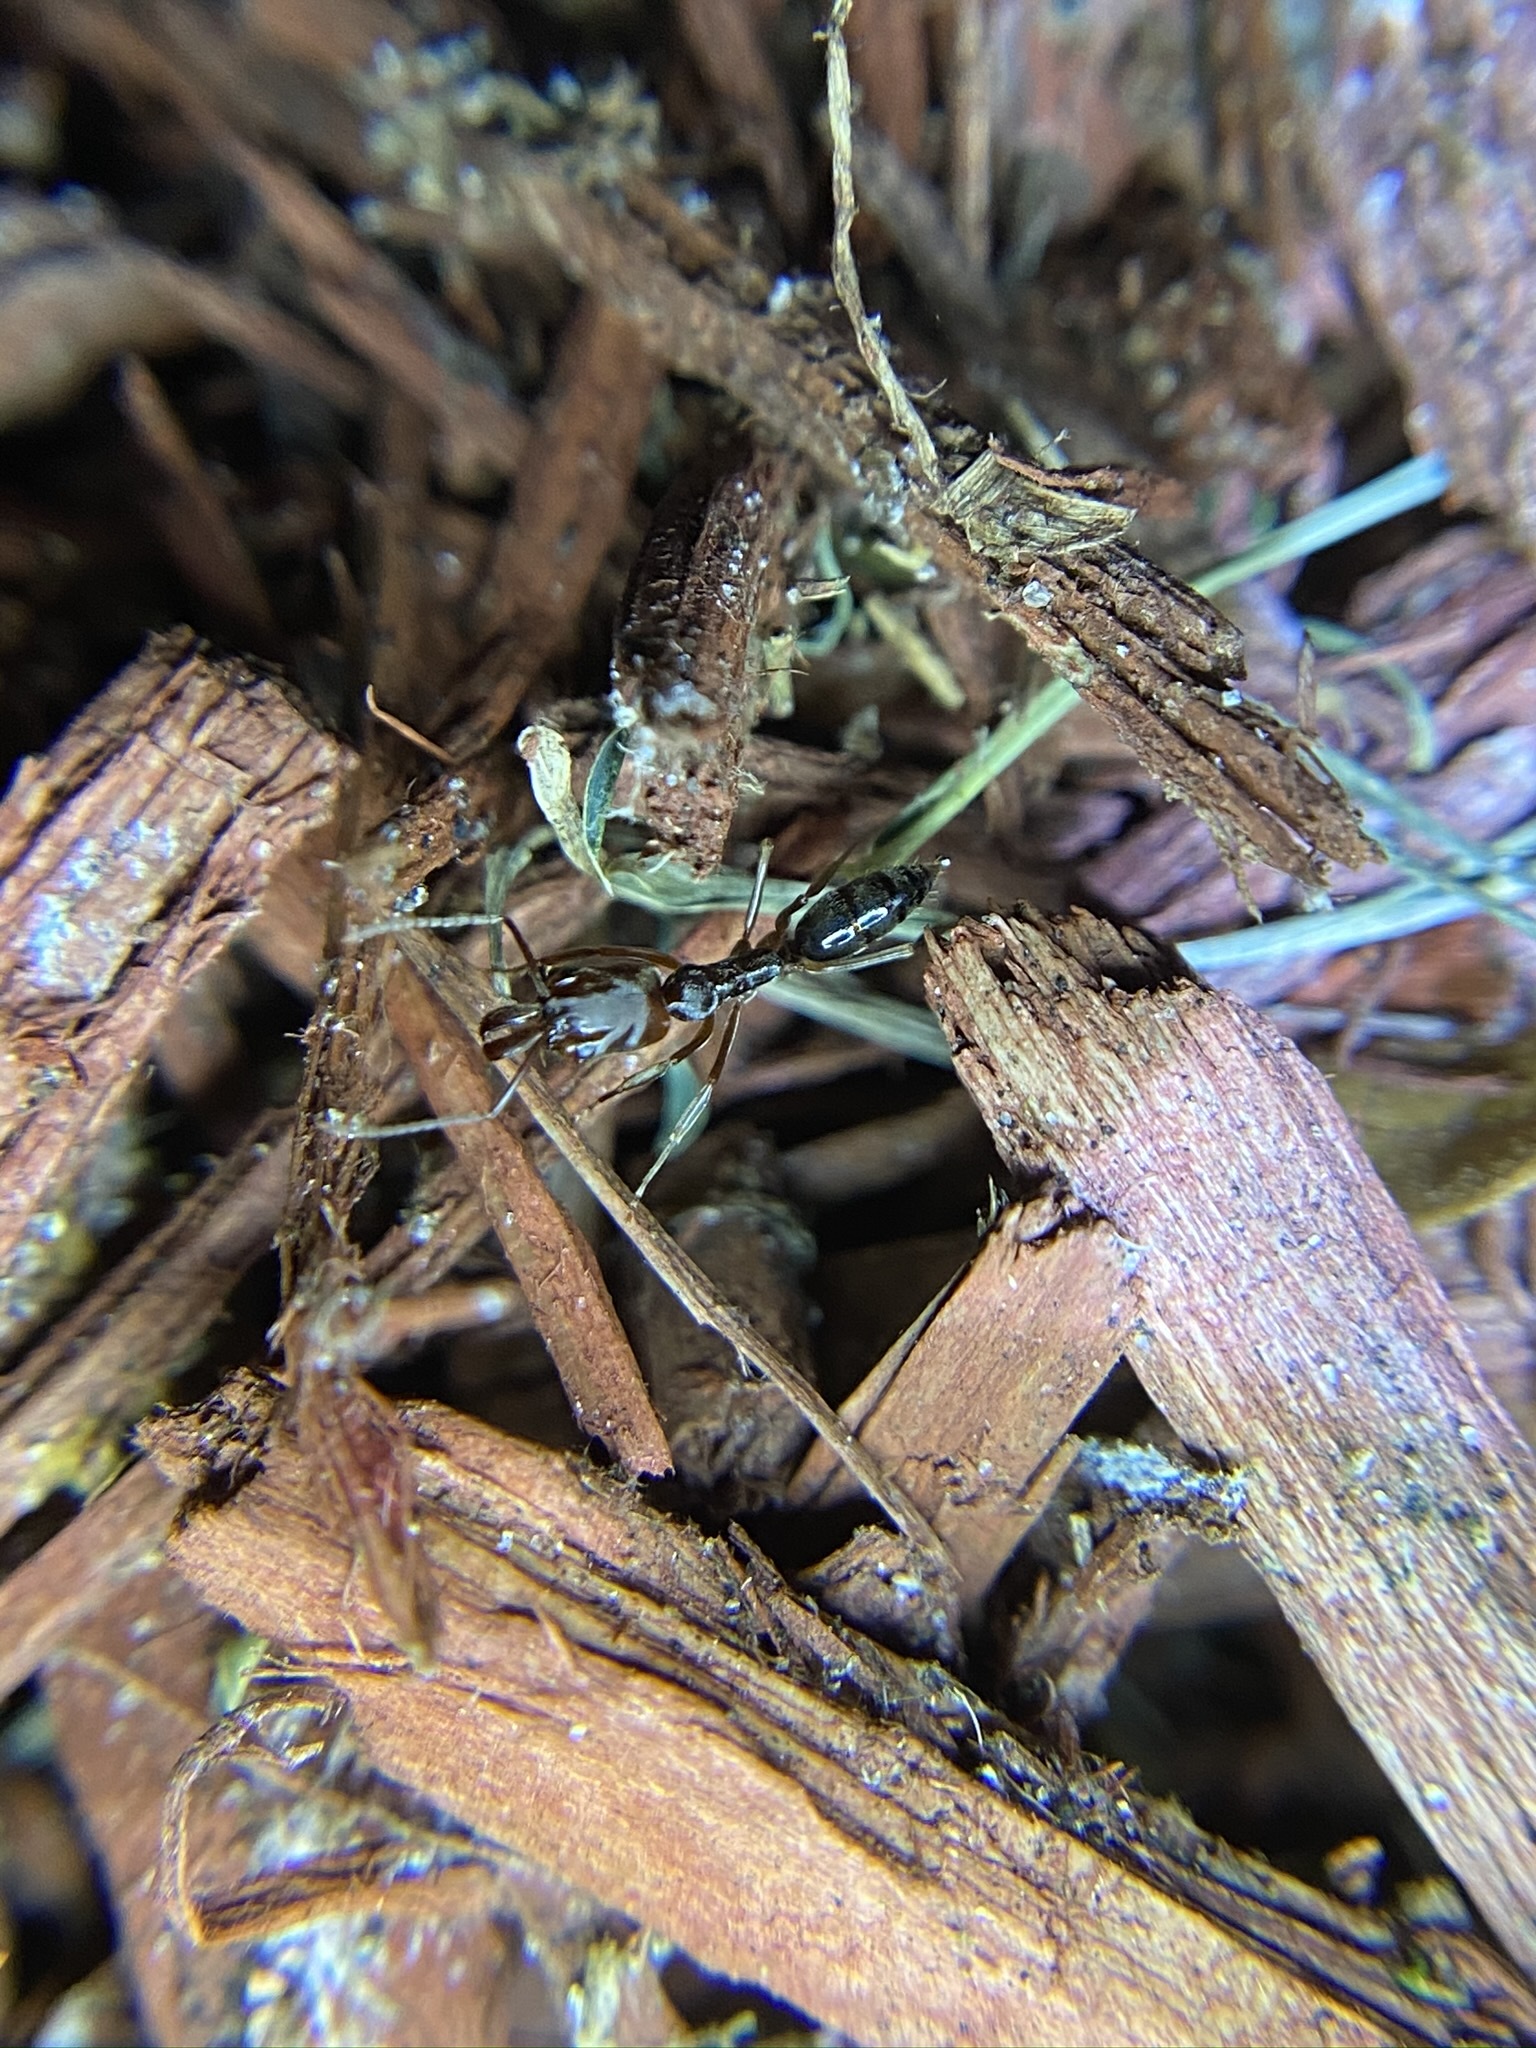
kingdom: Animalia
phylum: Arthropoda
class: Insecta
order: Hymenoptera
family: Formicidae
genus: Odontomachus
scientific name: Odontomachus ruginodis
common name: Trapjaw ant
